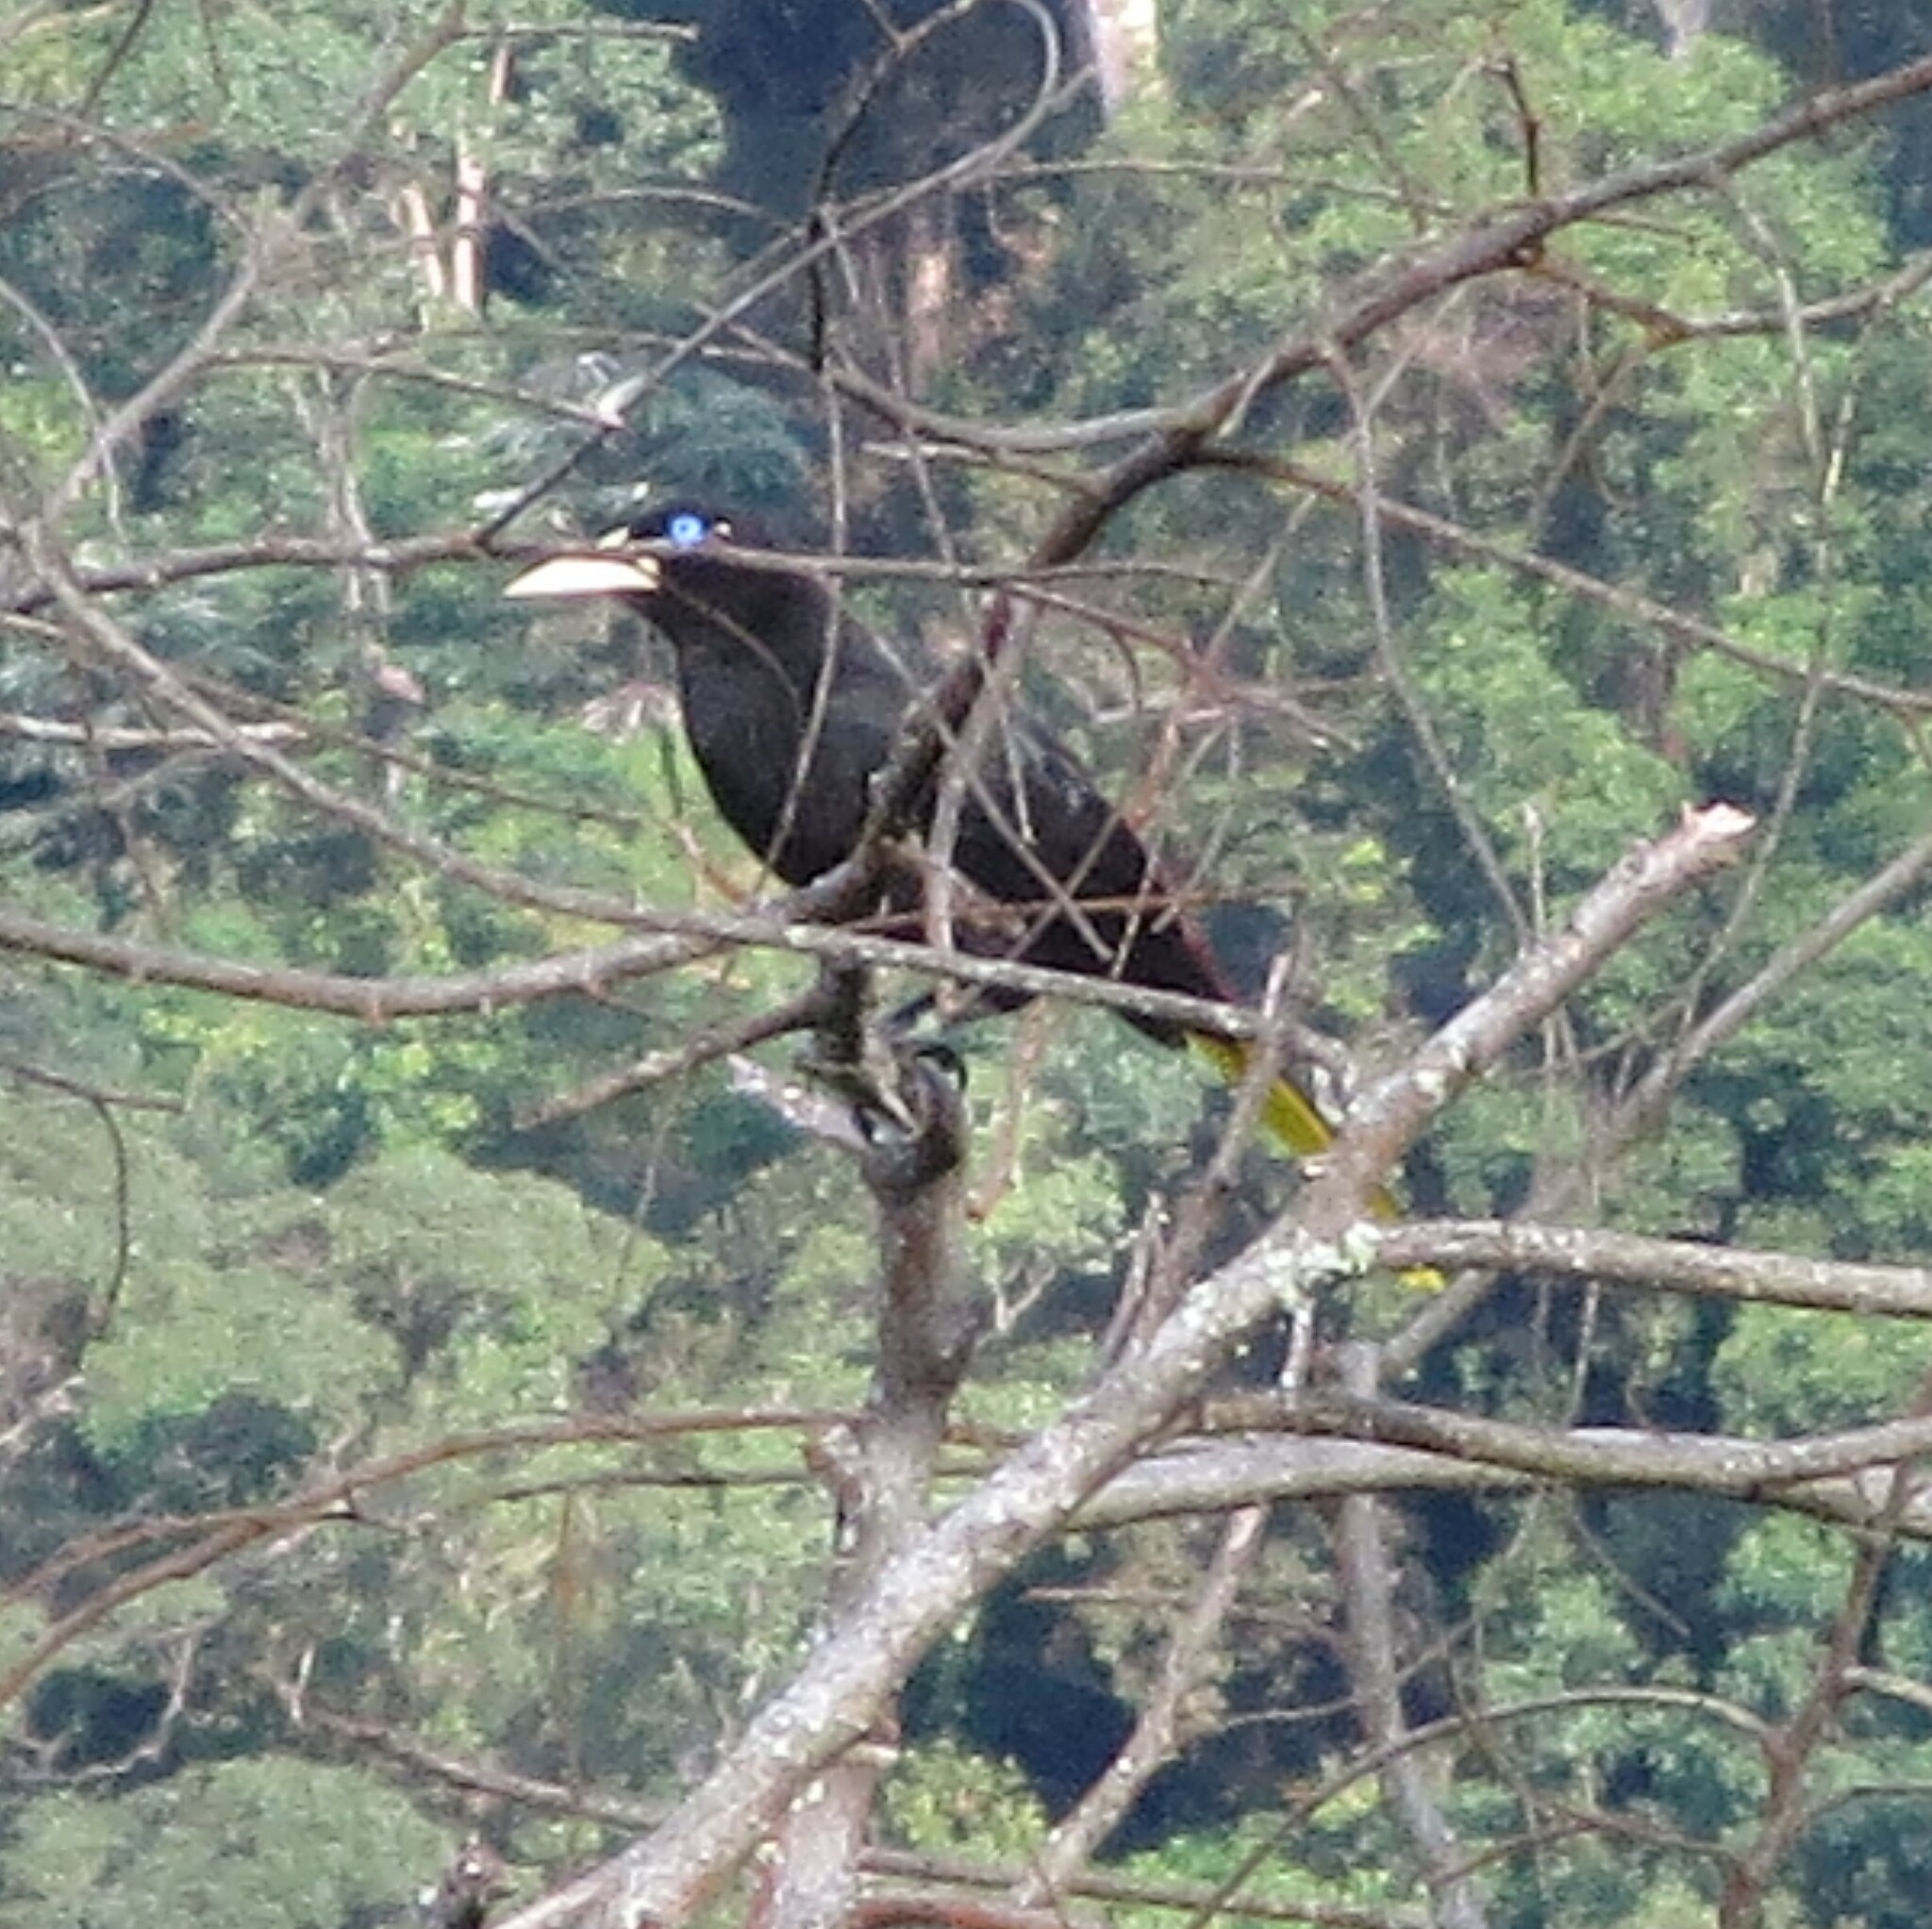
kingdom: Animalia
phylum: Chordata
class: Aves
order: Passeriformes
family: Icteridae
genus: Psarocolius
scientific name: Psarocolius decumanus
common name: Crested oropendola
